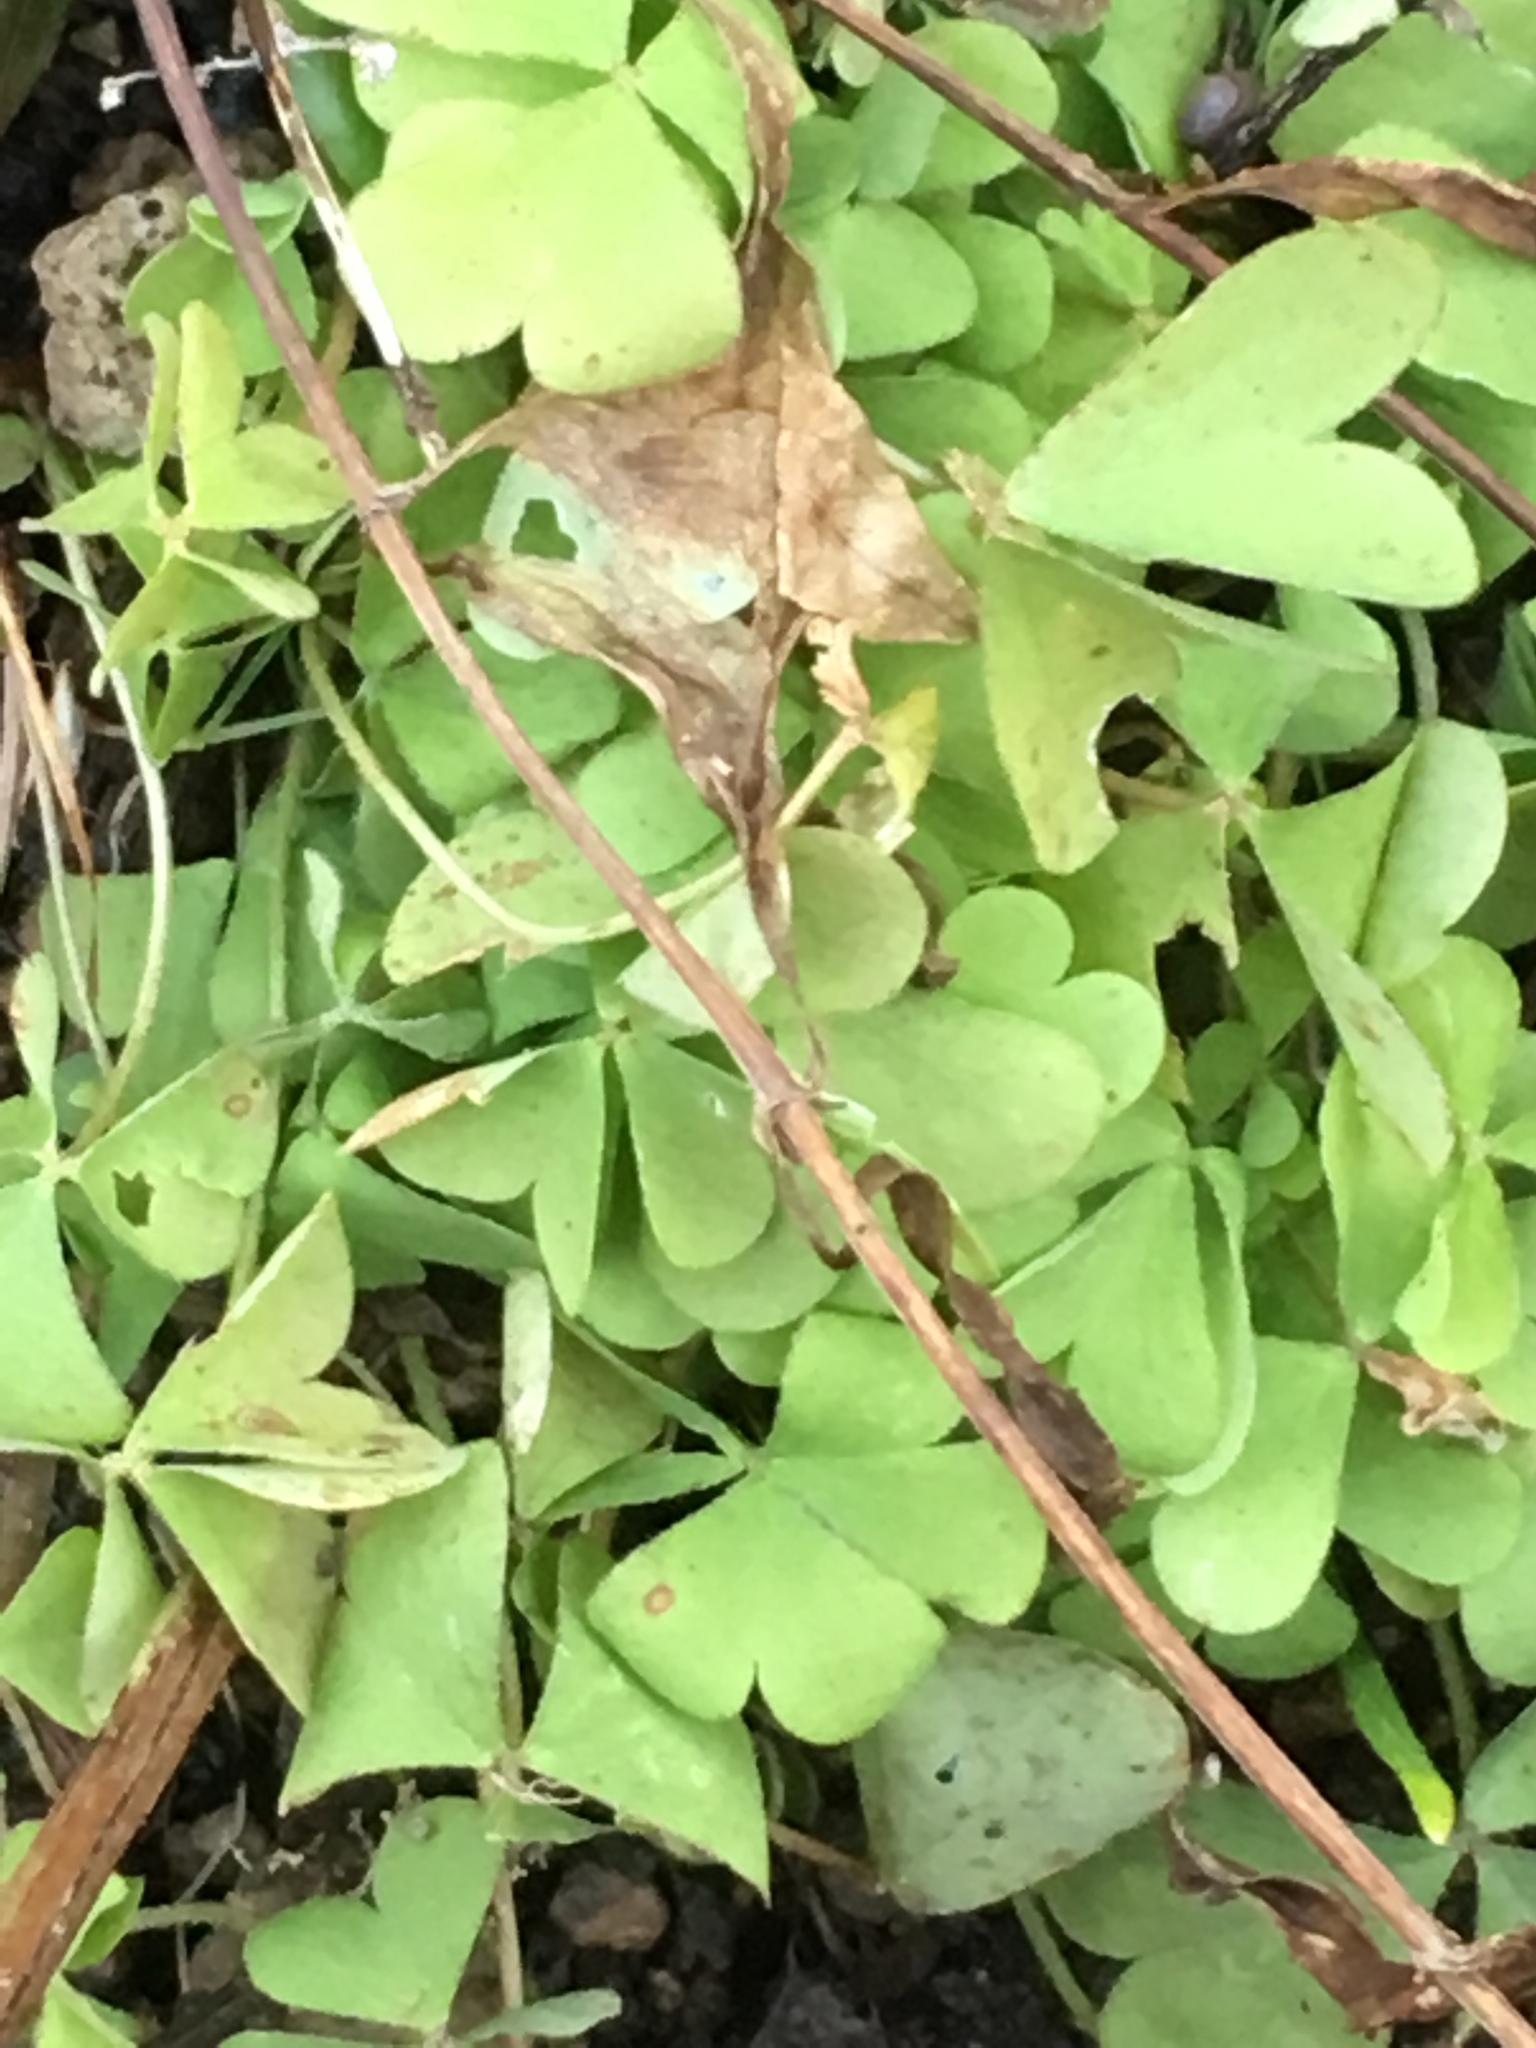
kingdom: Plantae
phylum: Tracheophyta
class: Magnoliopsida
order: Oxalidales
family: Oxalidaceae
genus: Oxalis
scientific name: Oxalis articulata
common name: Pink-sorrel
